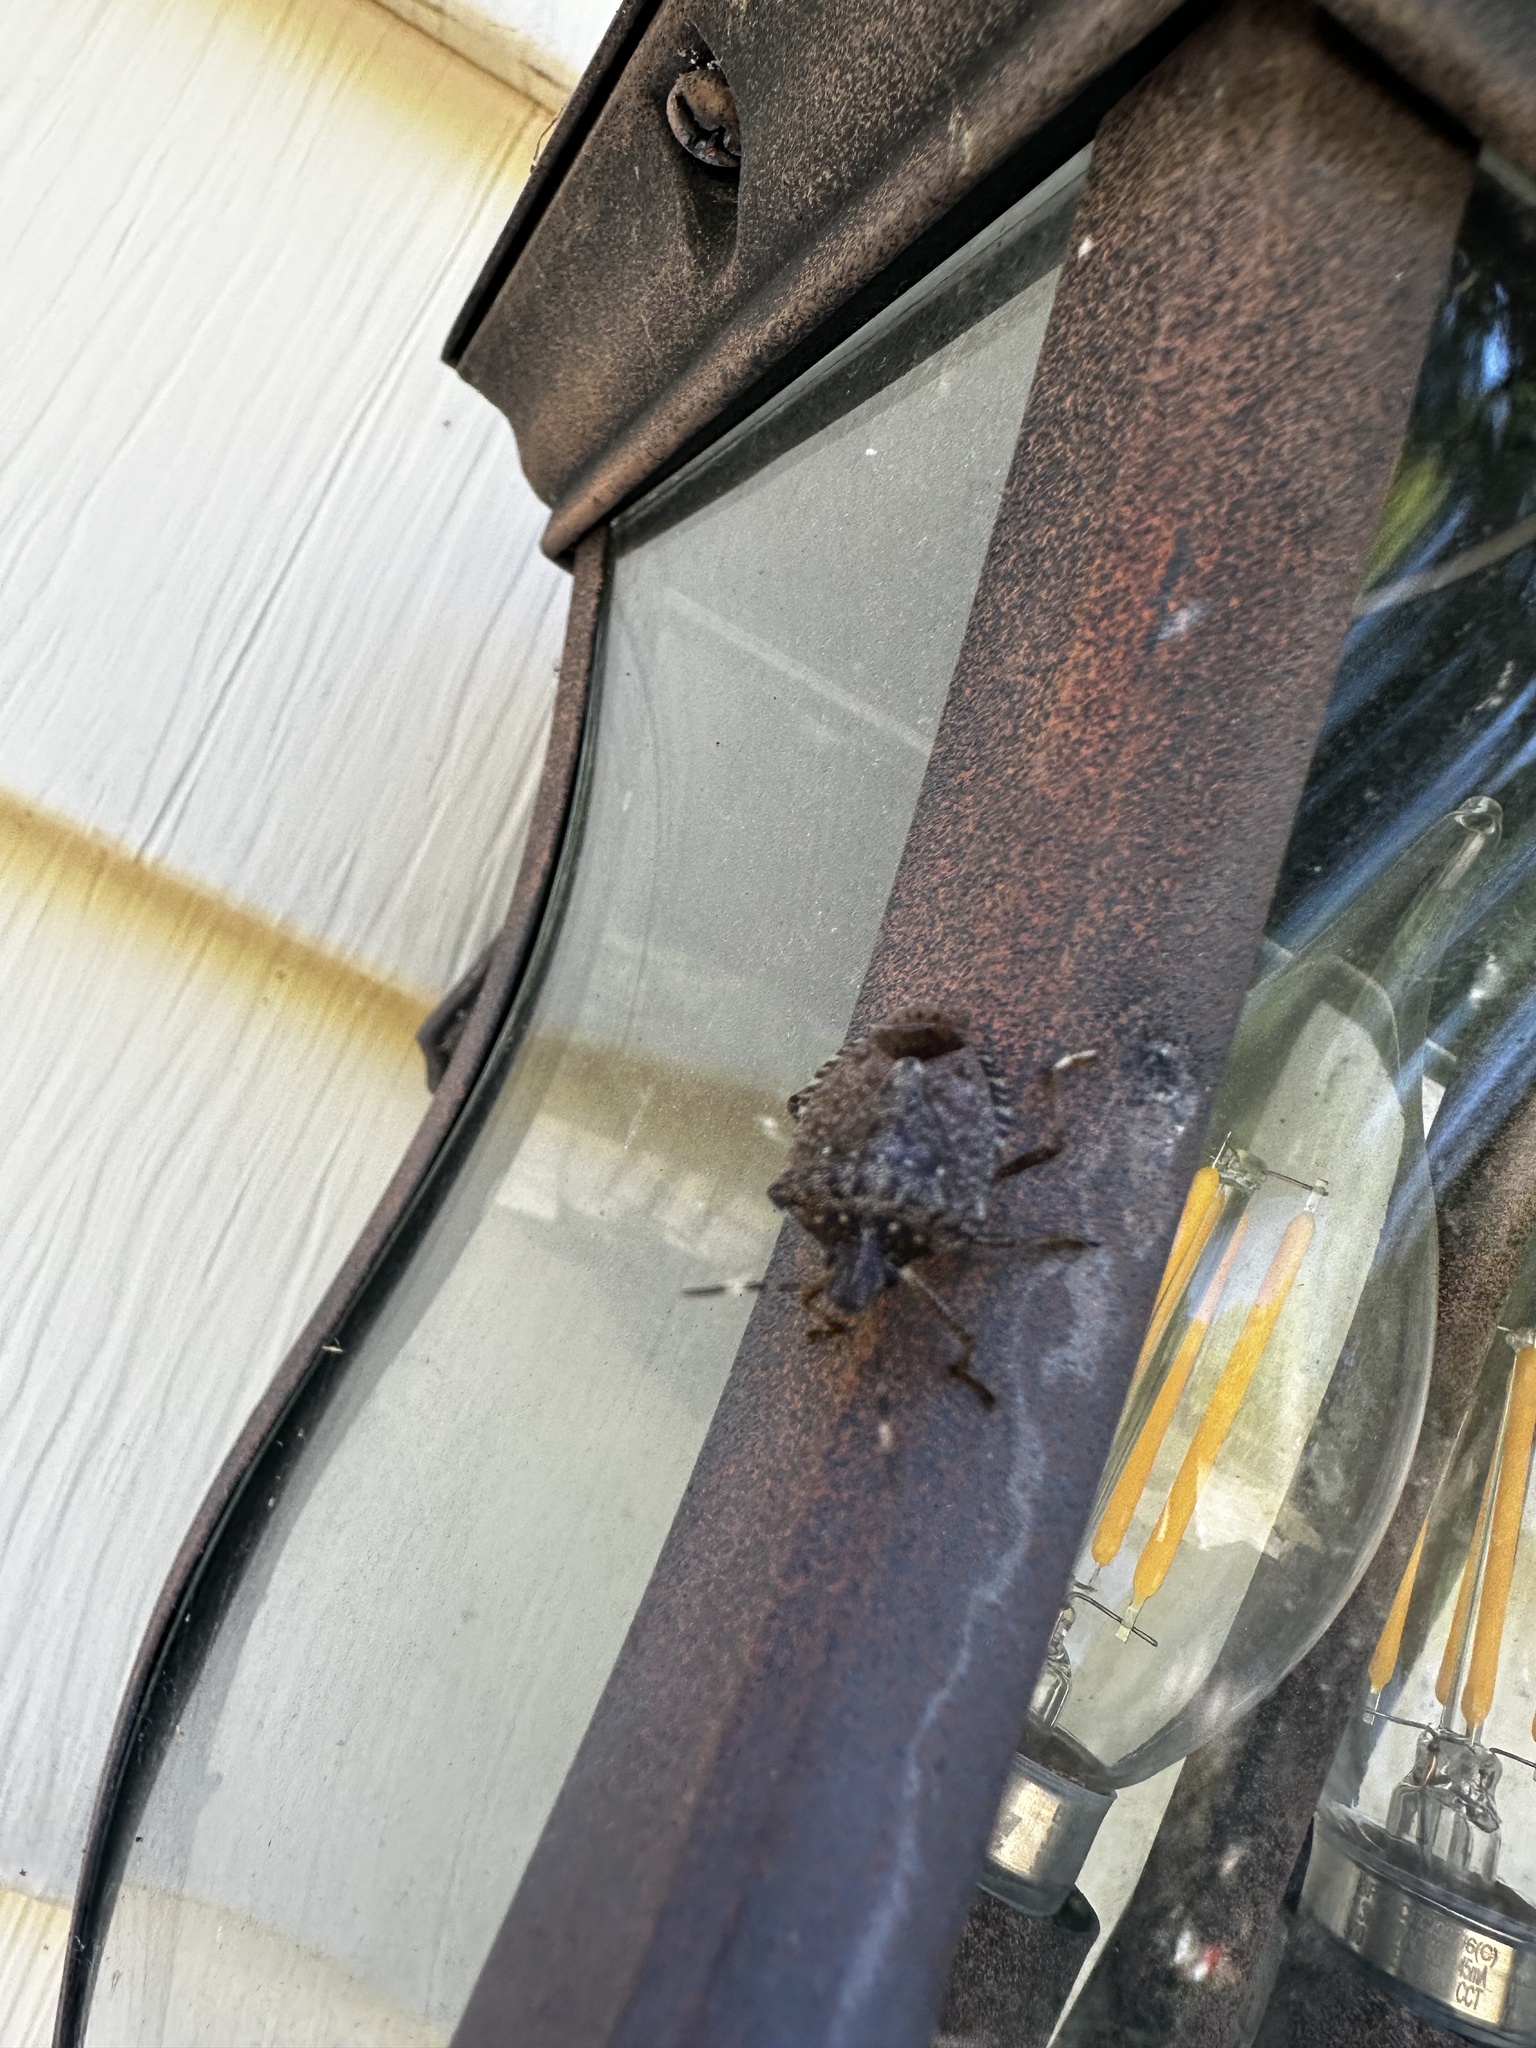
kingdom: Animalia
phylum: Arthropoda
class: Insecta
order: Hemiptera
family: Pentatomidae
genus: Halyomorpha
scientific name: Halyomorpha halys
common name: Brown marmorated stink bug
